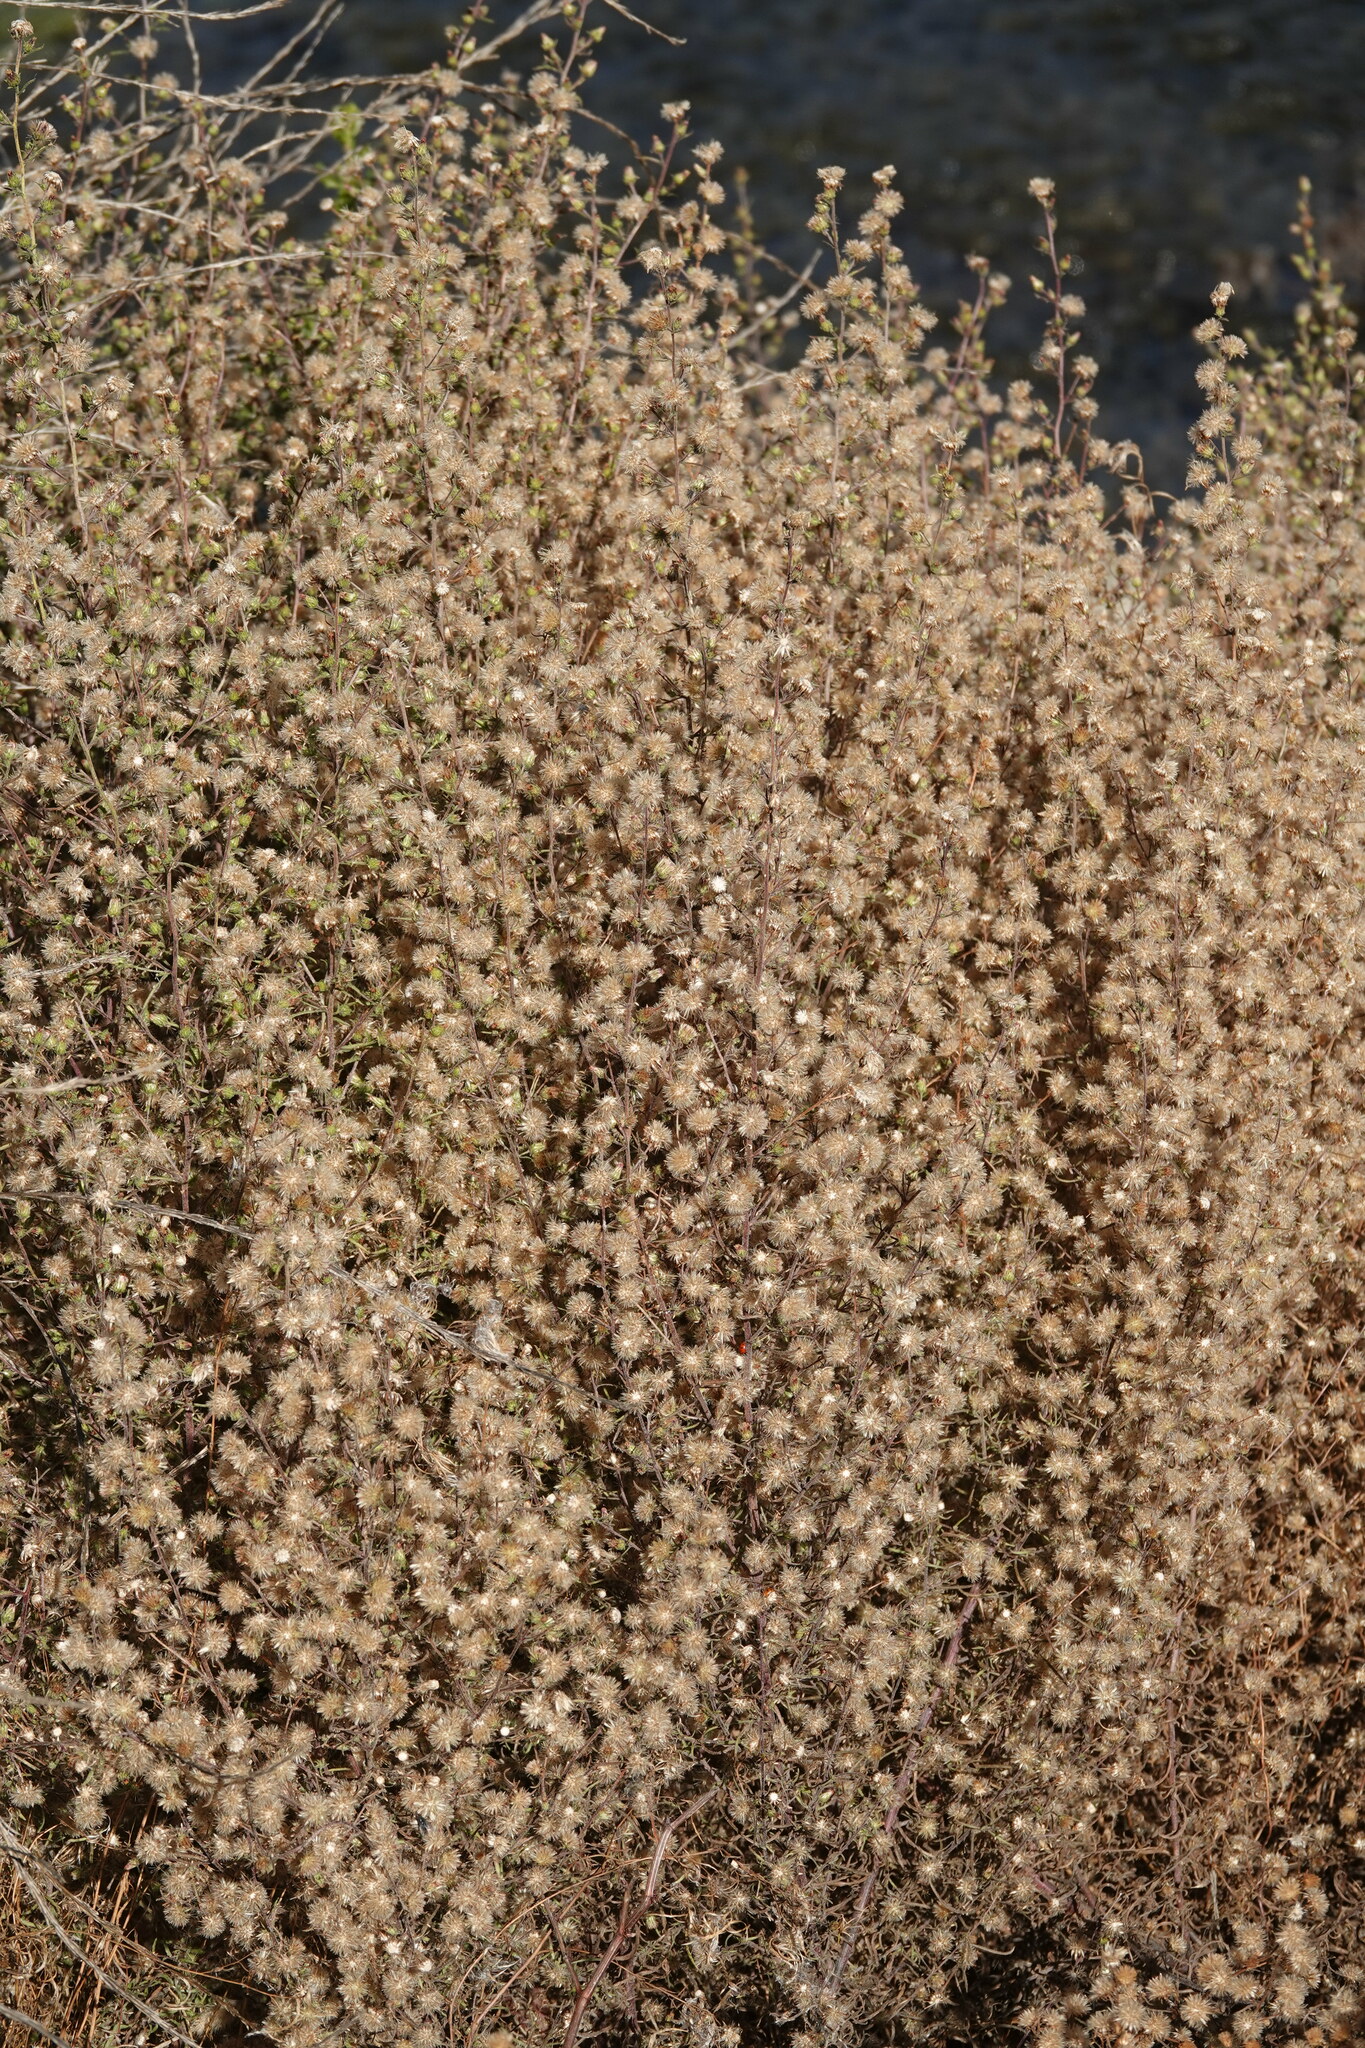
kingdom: Plantae
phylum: Tracheophyta
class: Magnoliopsida
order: Asterales
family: Asteraceae
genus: Dittrichia
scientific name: Dittrichia graveolens
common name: Stinking fleabane
